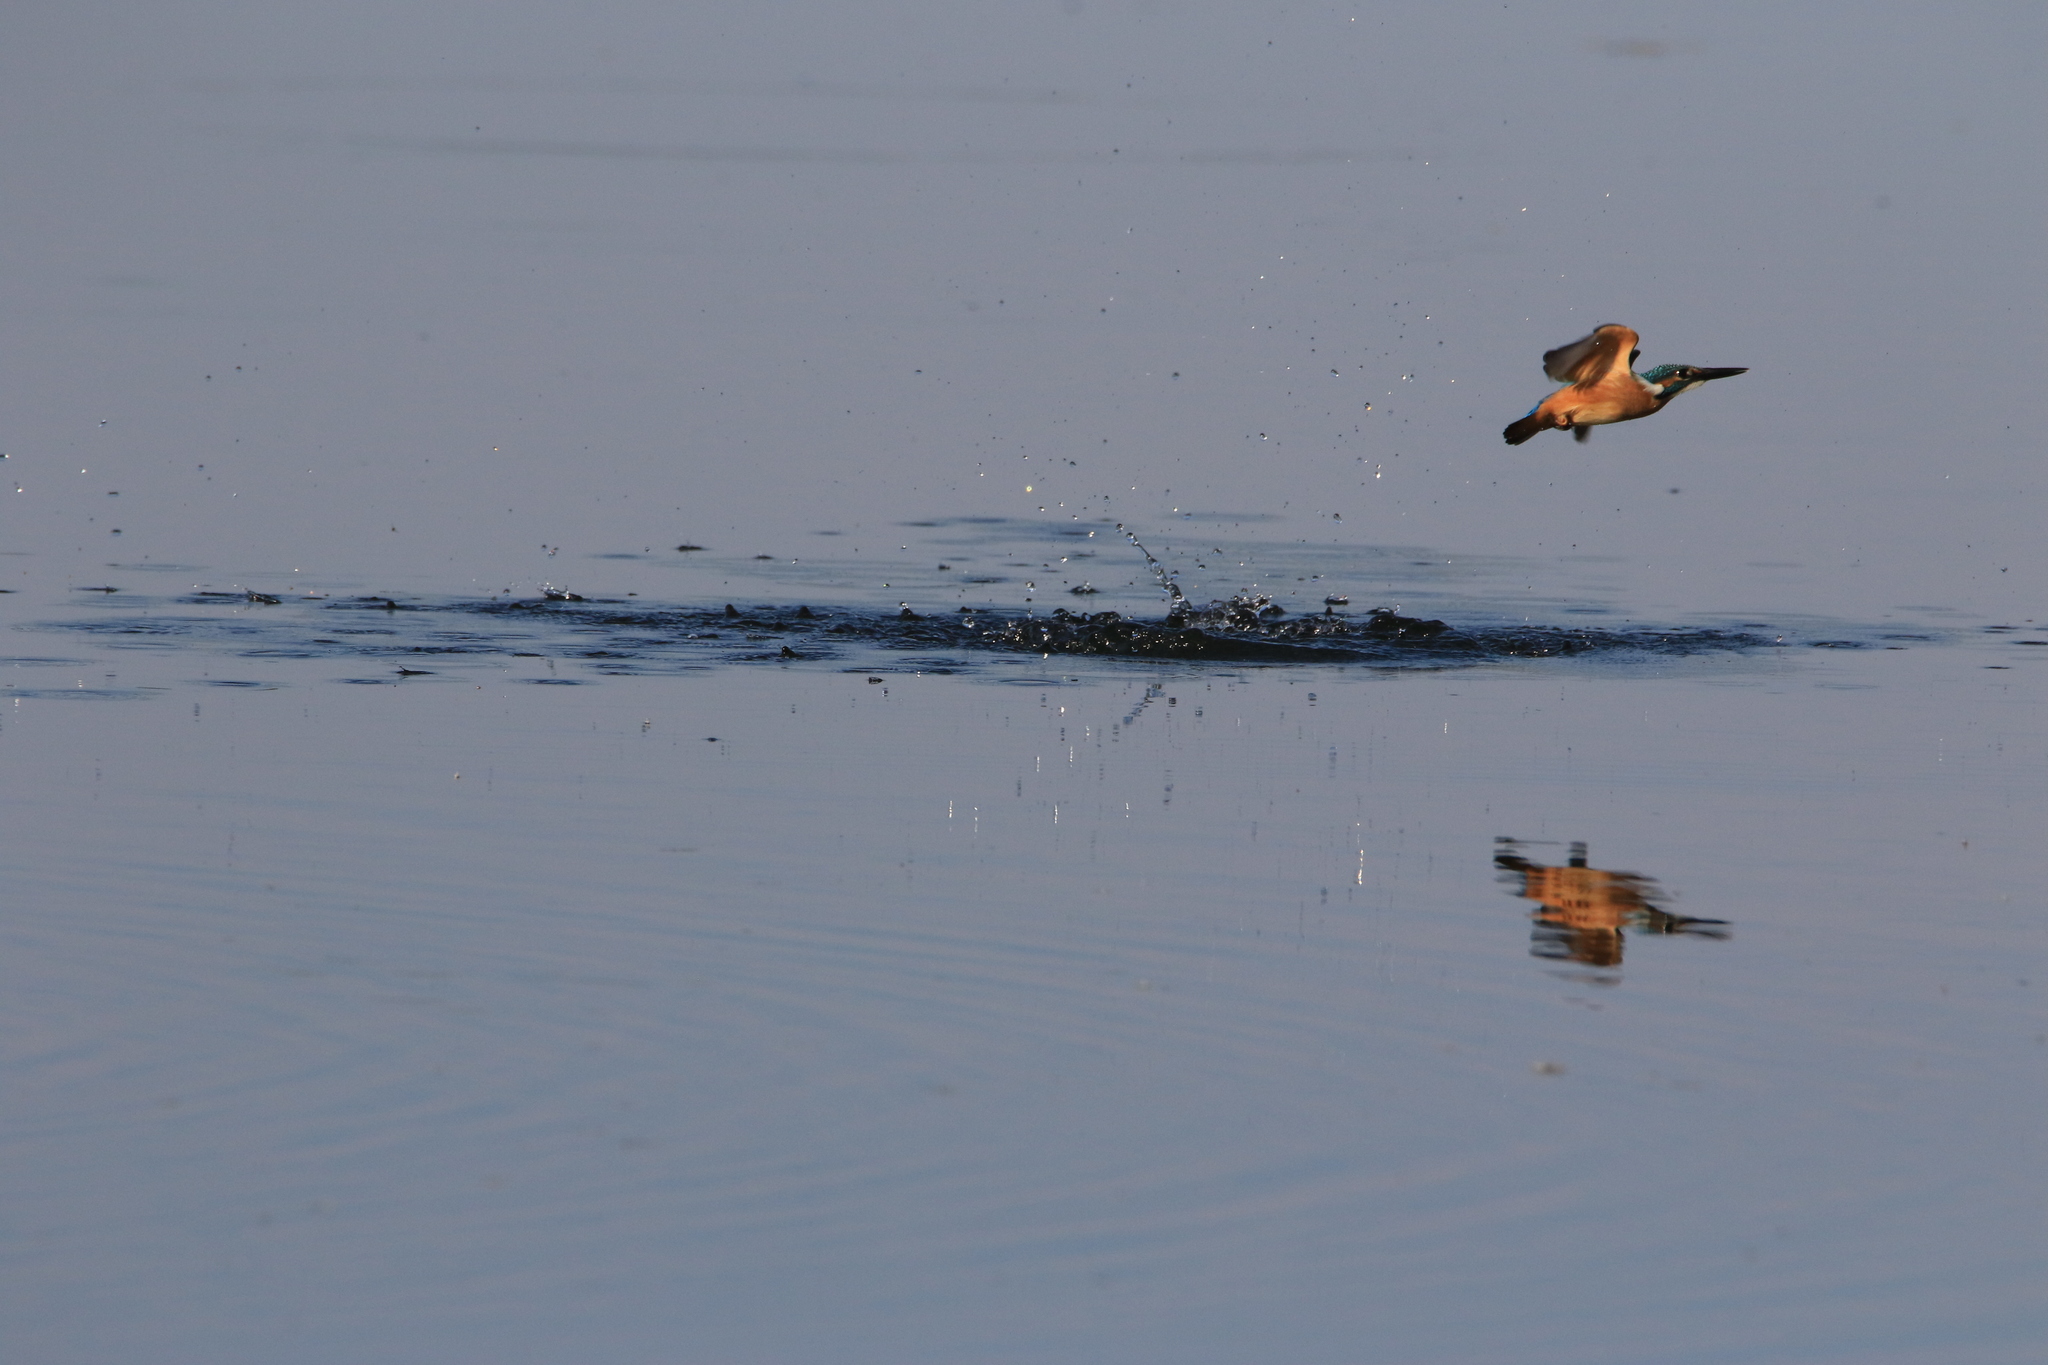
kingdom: Animalia
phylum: Chordata
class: Aves
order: Coraciiformes
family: Alcedinidae
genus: Alcedo
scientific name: Alcedo atthis
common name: Common kingfisher
